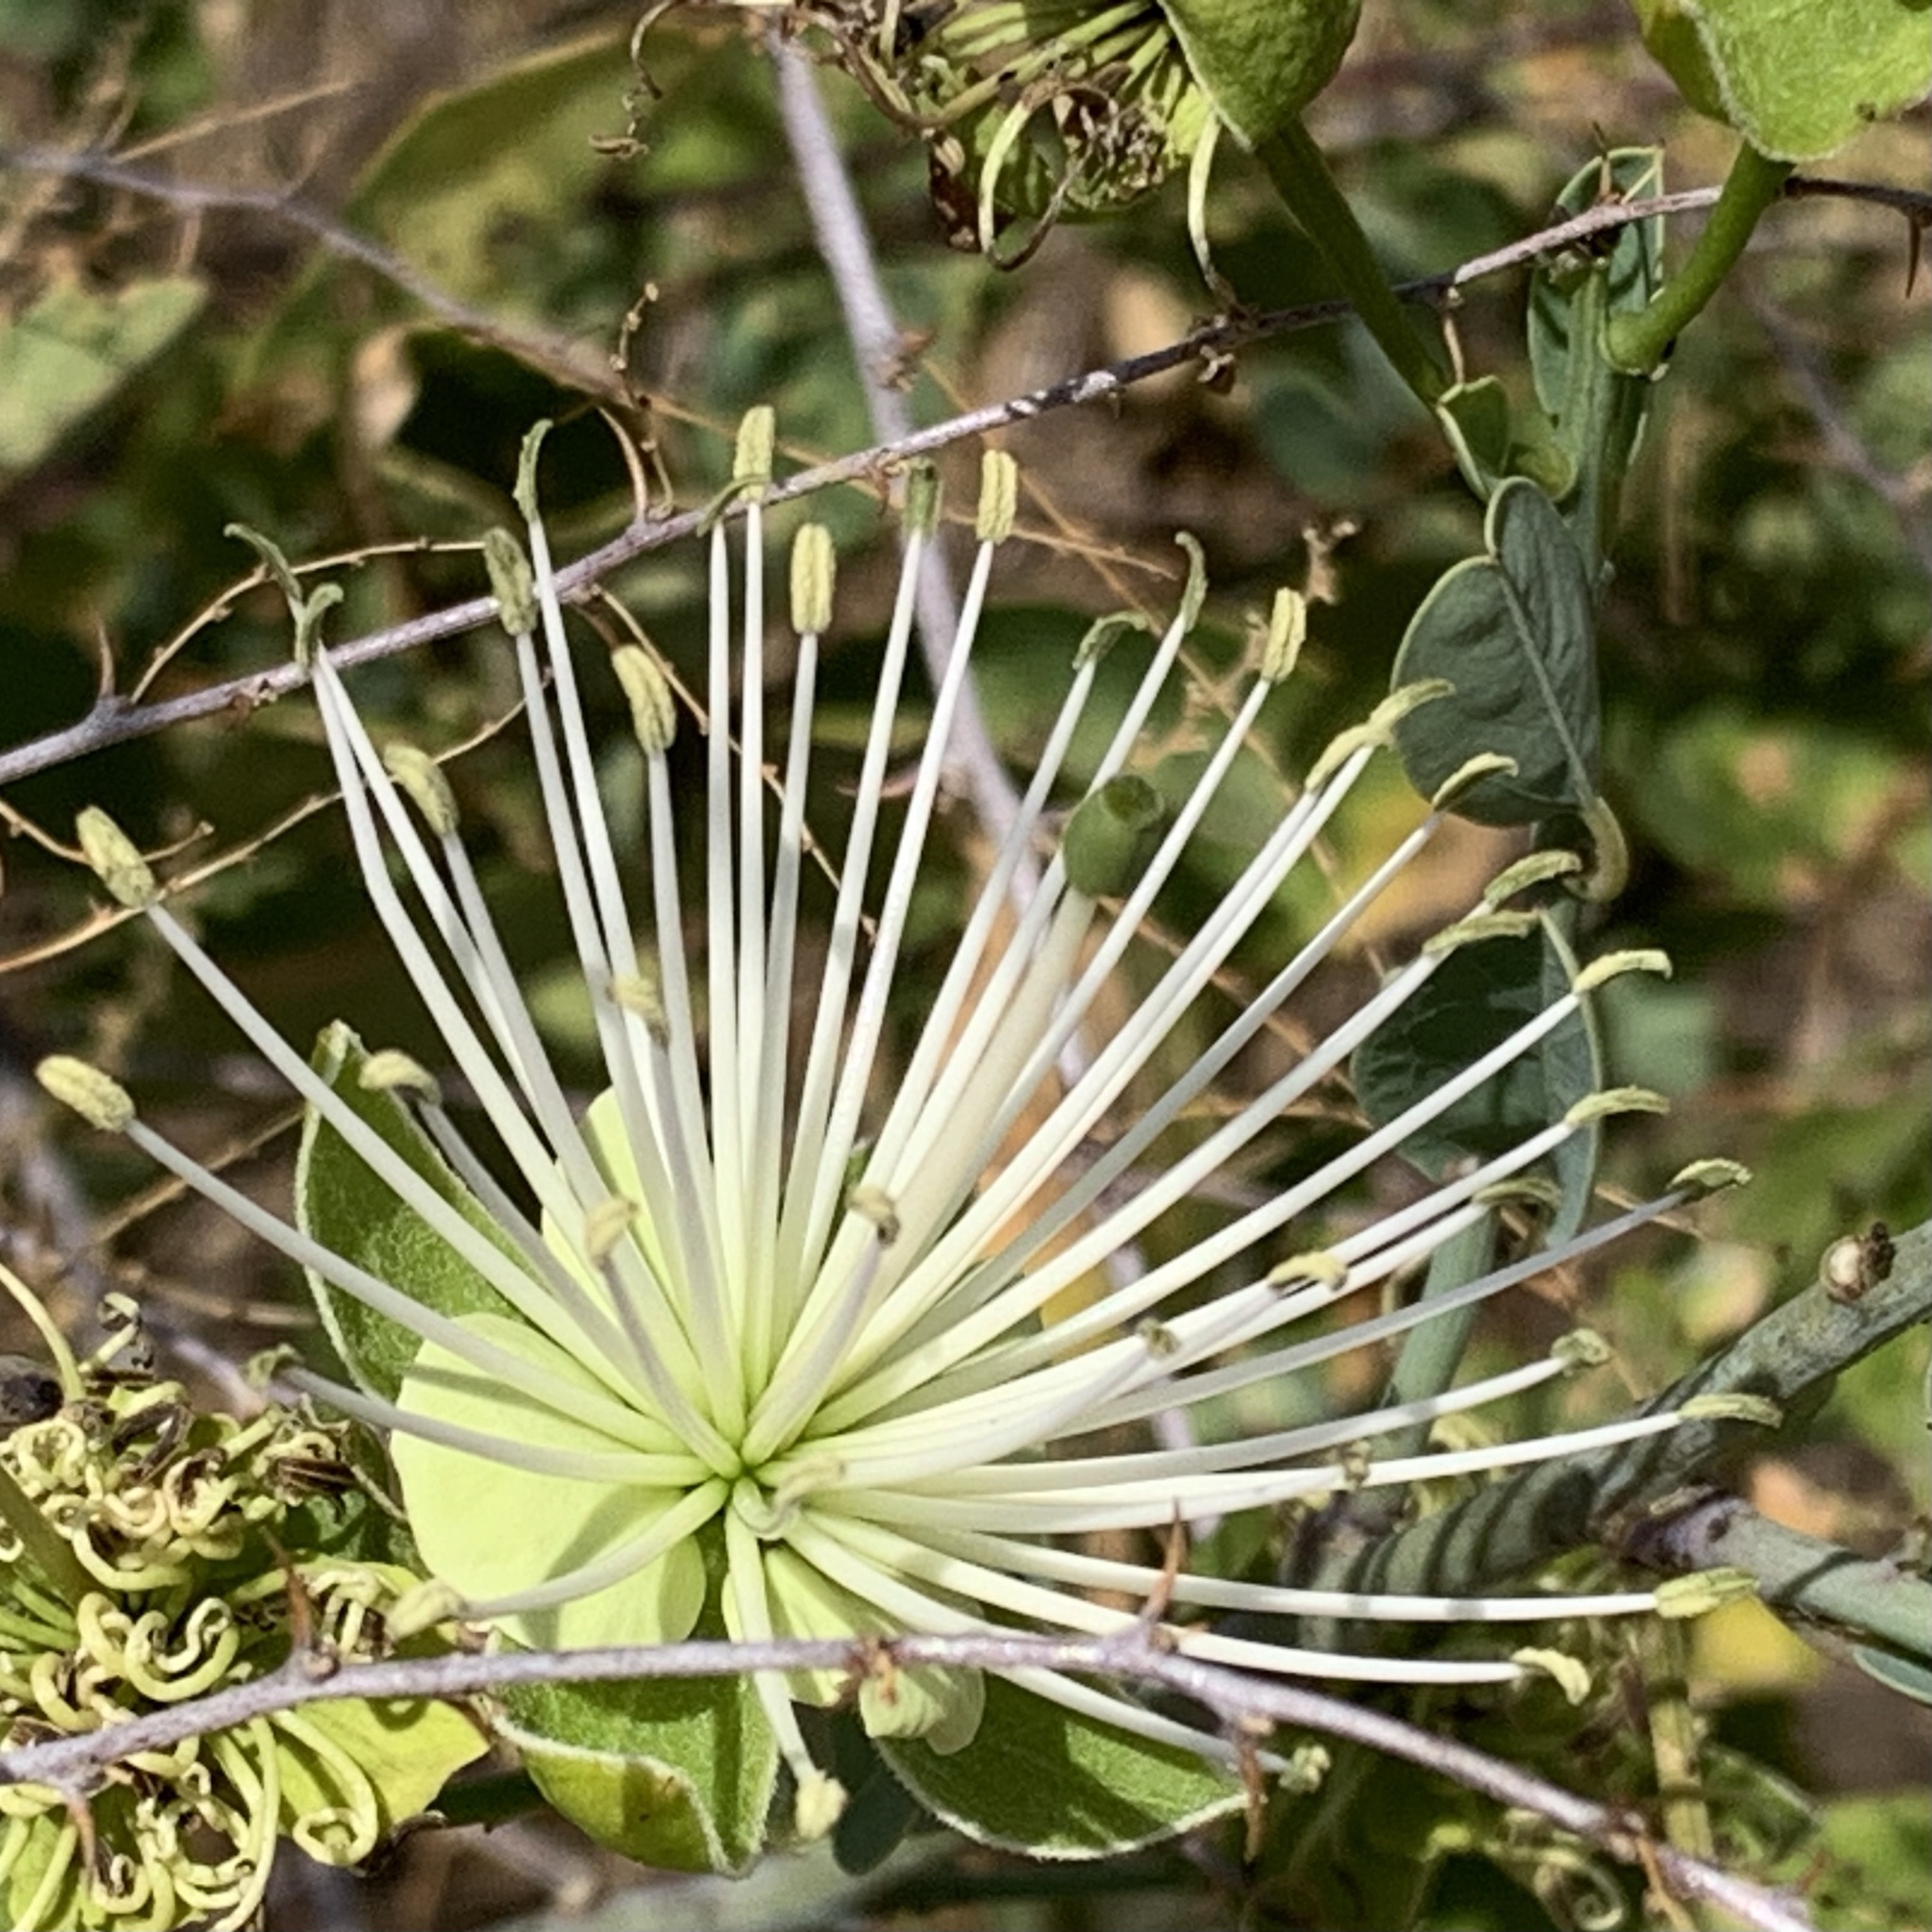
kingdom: Plantae
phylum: Tracheophyta
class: Magnoliopsida
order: Brassicales
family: Capparaceae
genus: Maerua
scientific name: Maerua juncea
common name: Rough-skinned bush cherry
